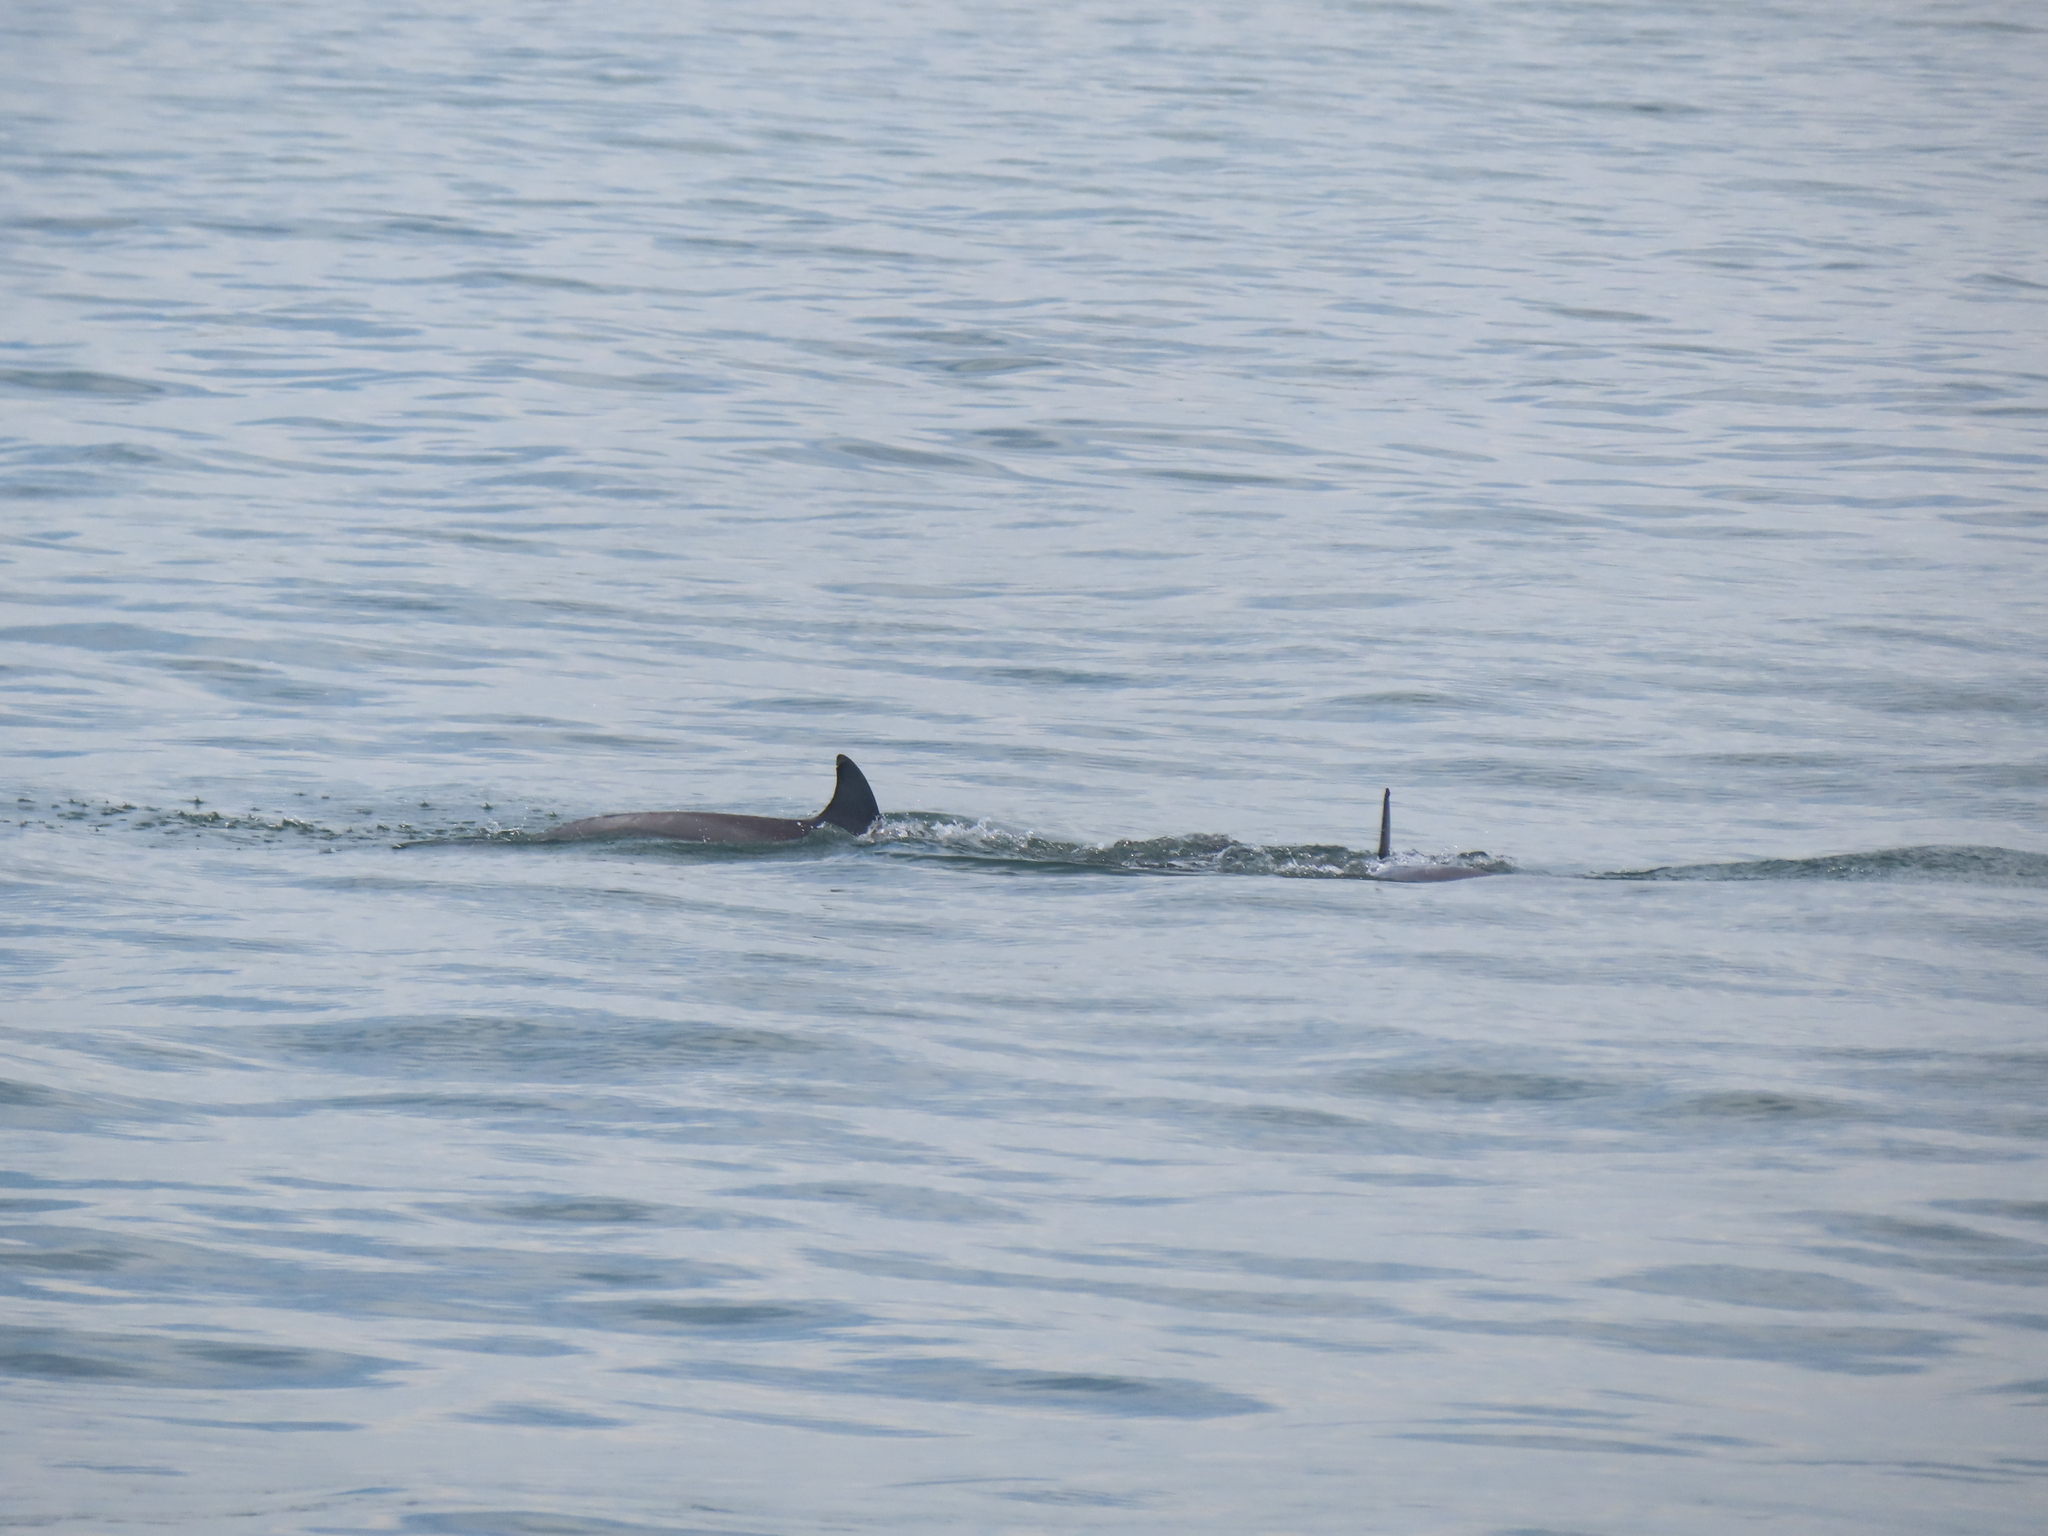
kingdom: Animalia
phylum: Chordata
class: Mammalia
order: Cetacea
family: Delphinidae
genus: Tursiops
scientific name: Tursiops truncatus
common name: Bottlenose dolphin
